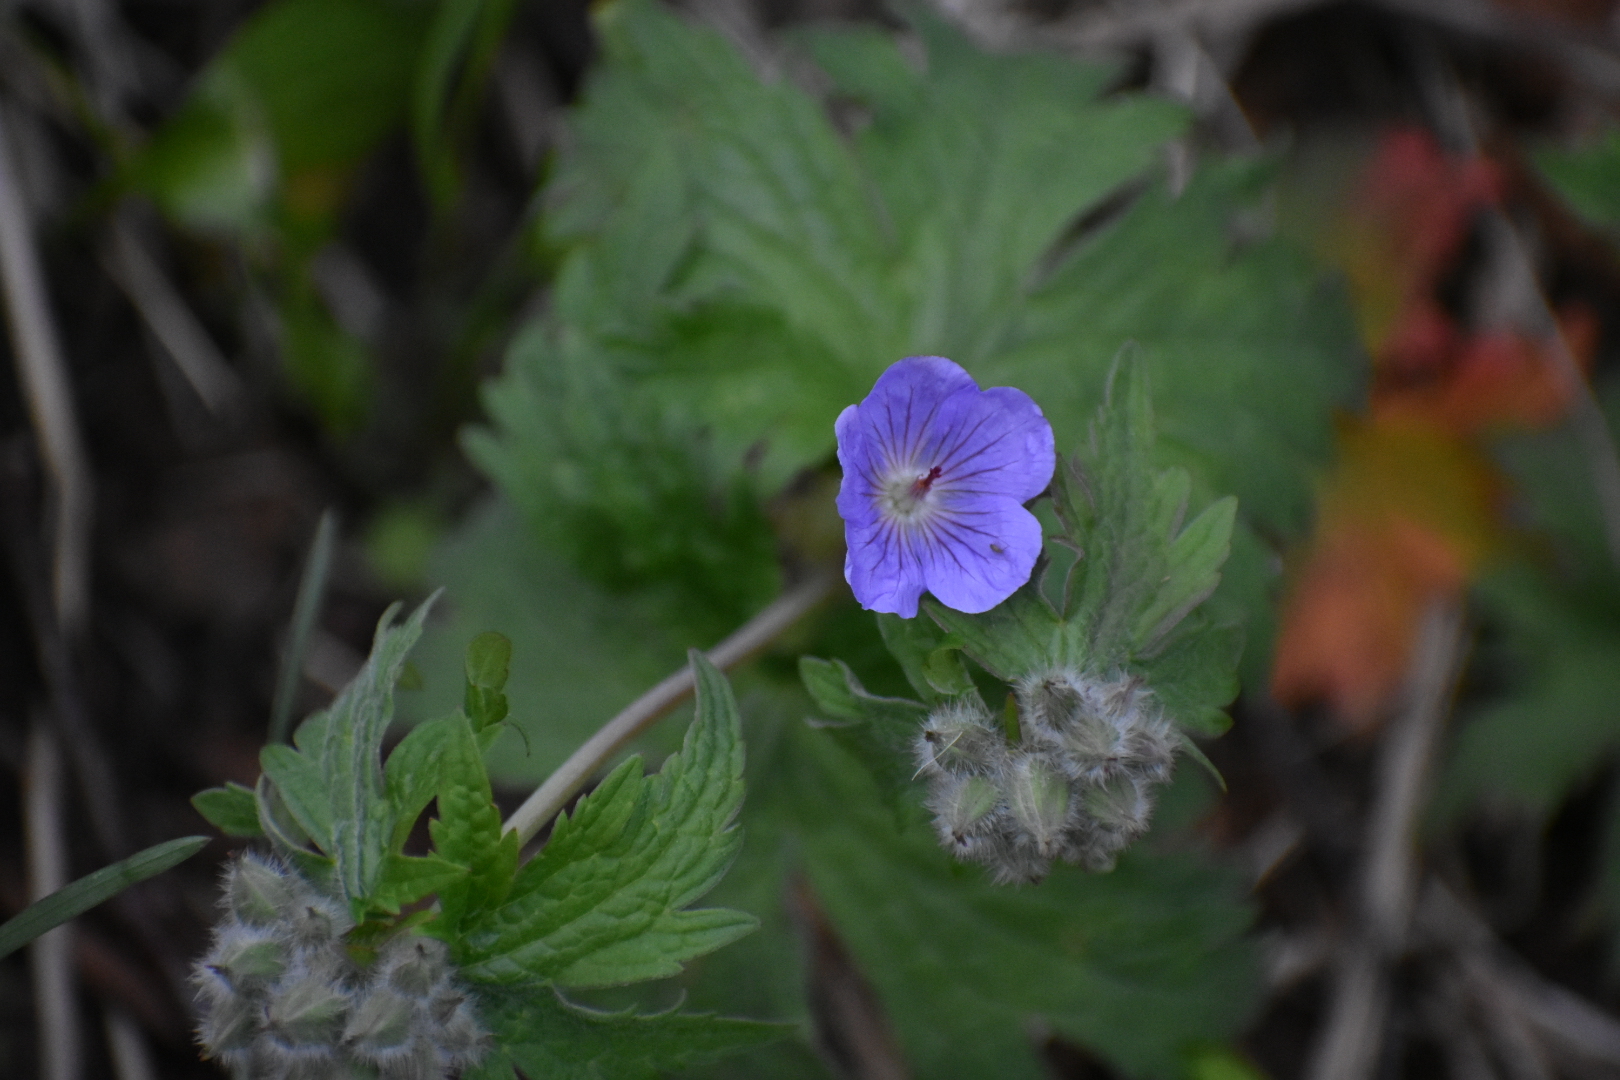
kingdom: Plantae
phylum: Tracheophyta
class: Magnoliopsida
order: Geraniales
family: Geraniaceae
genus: Geranium
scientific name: Geranium erianthum
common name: Northern crane's-bill
